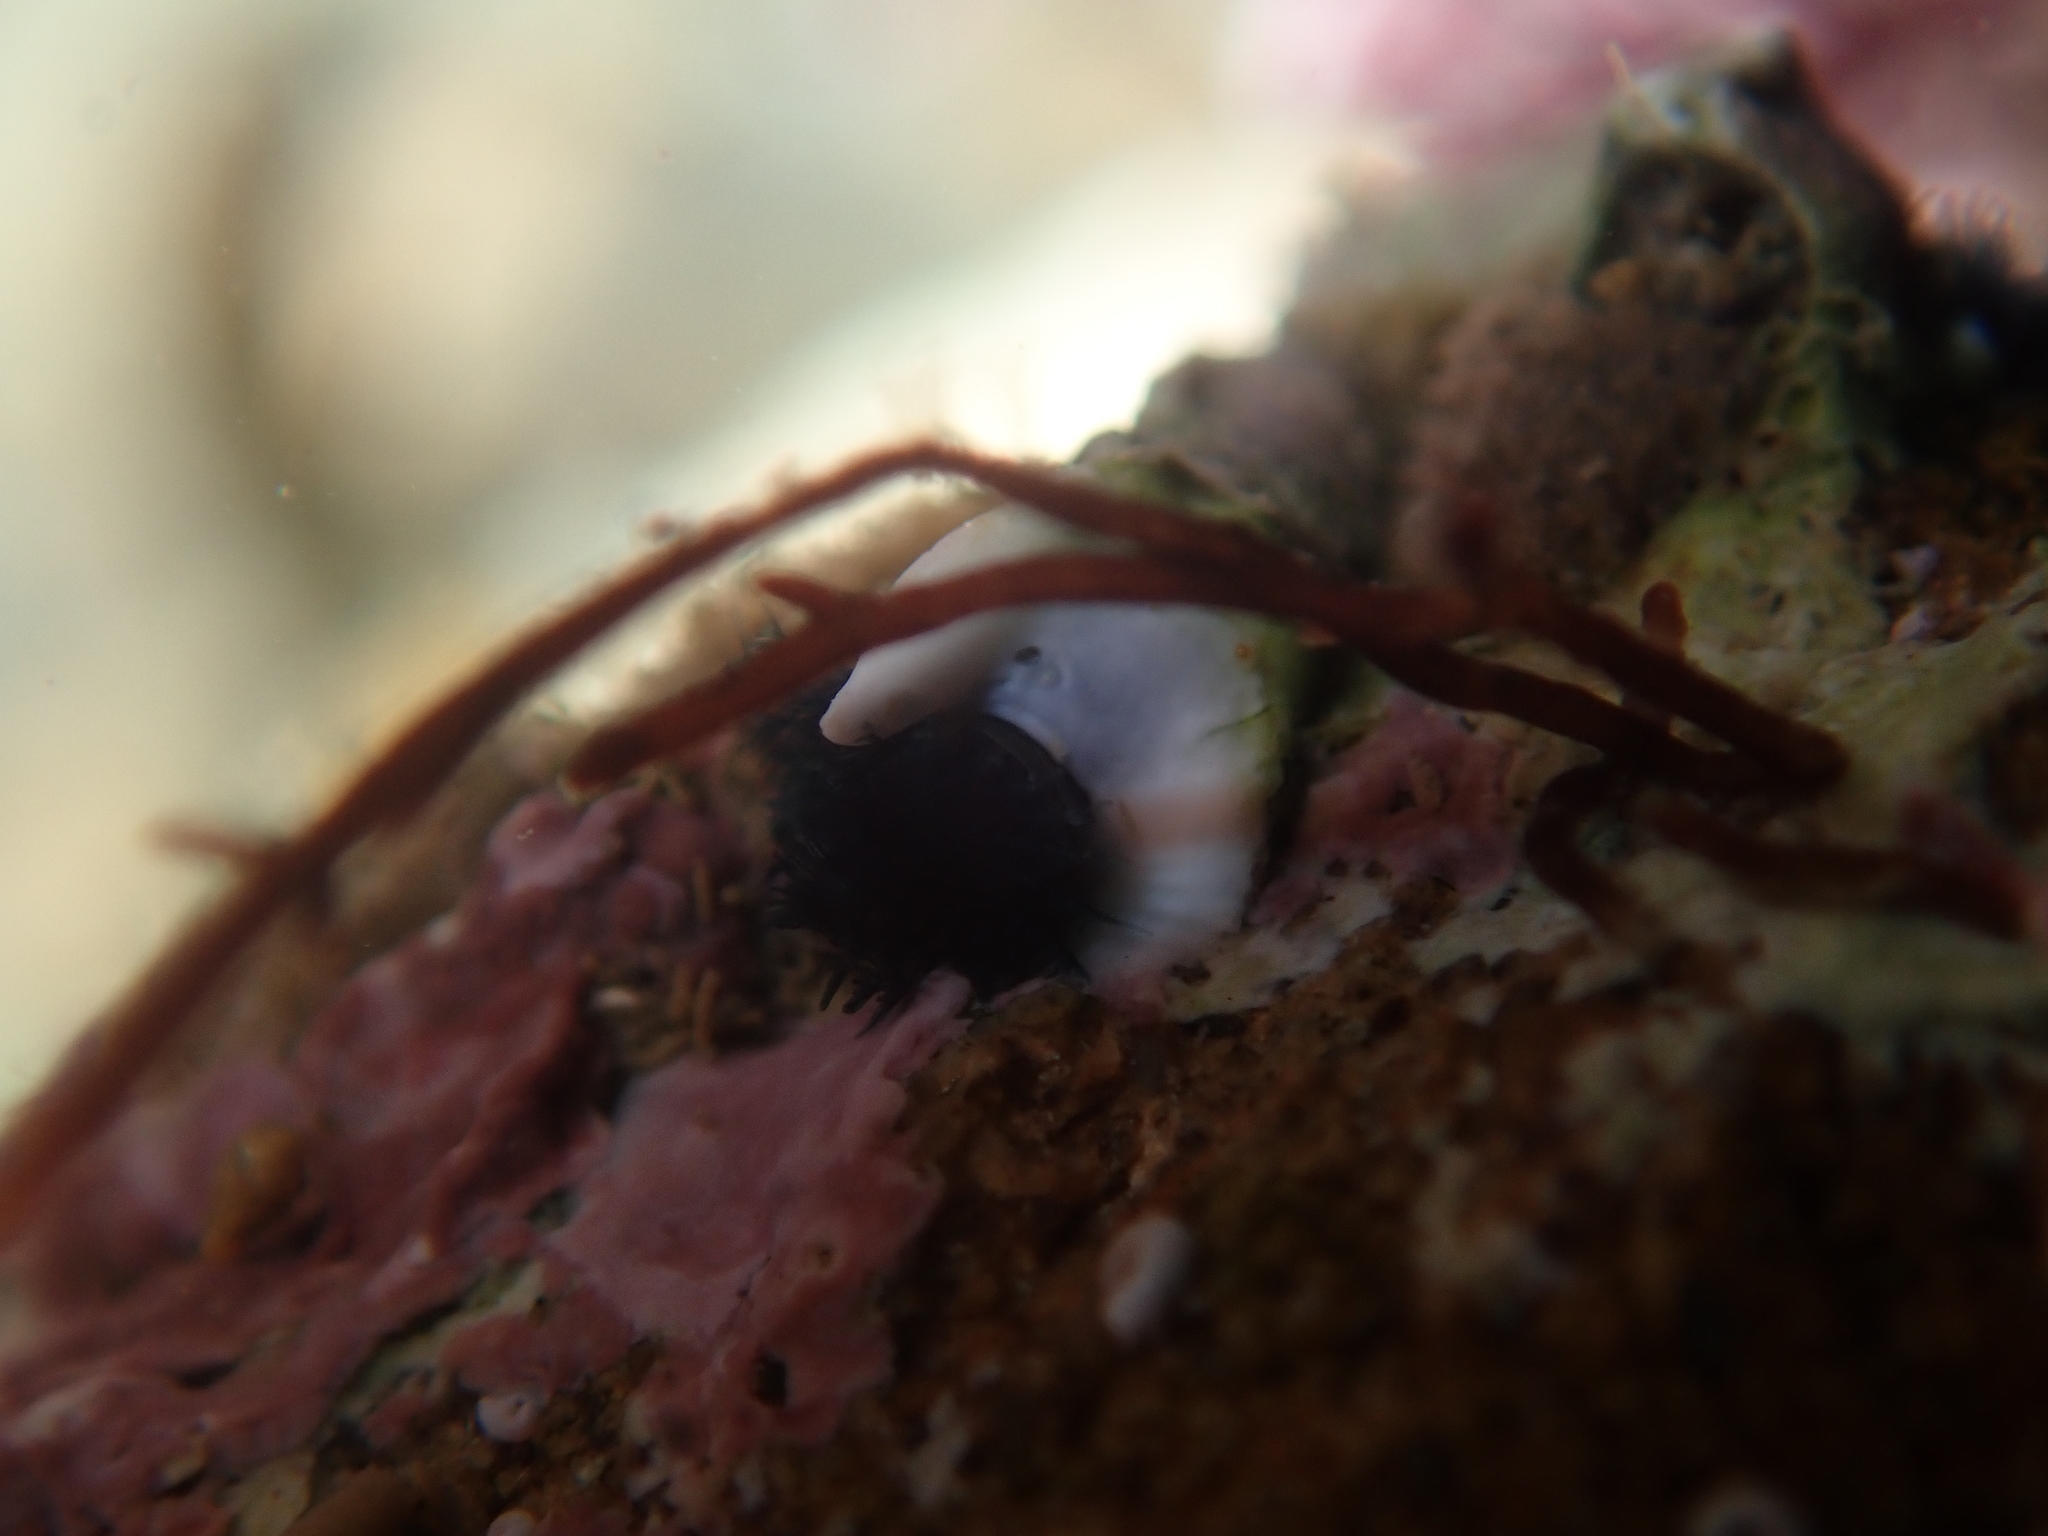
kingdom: Animalia
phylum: Annelida
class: Polychaeta
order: Sabellida
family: Serpulidae
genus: Spirobranchus
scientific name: Spirobranchus cariniferus
